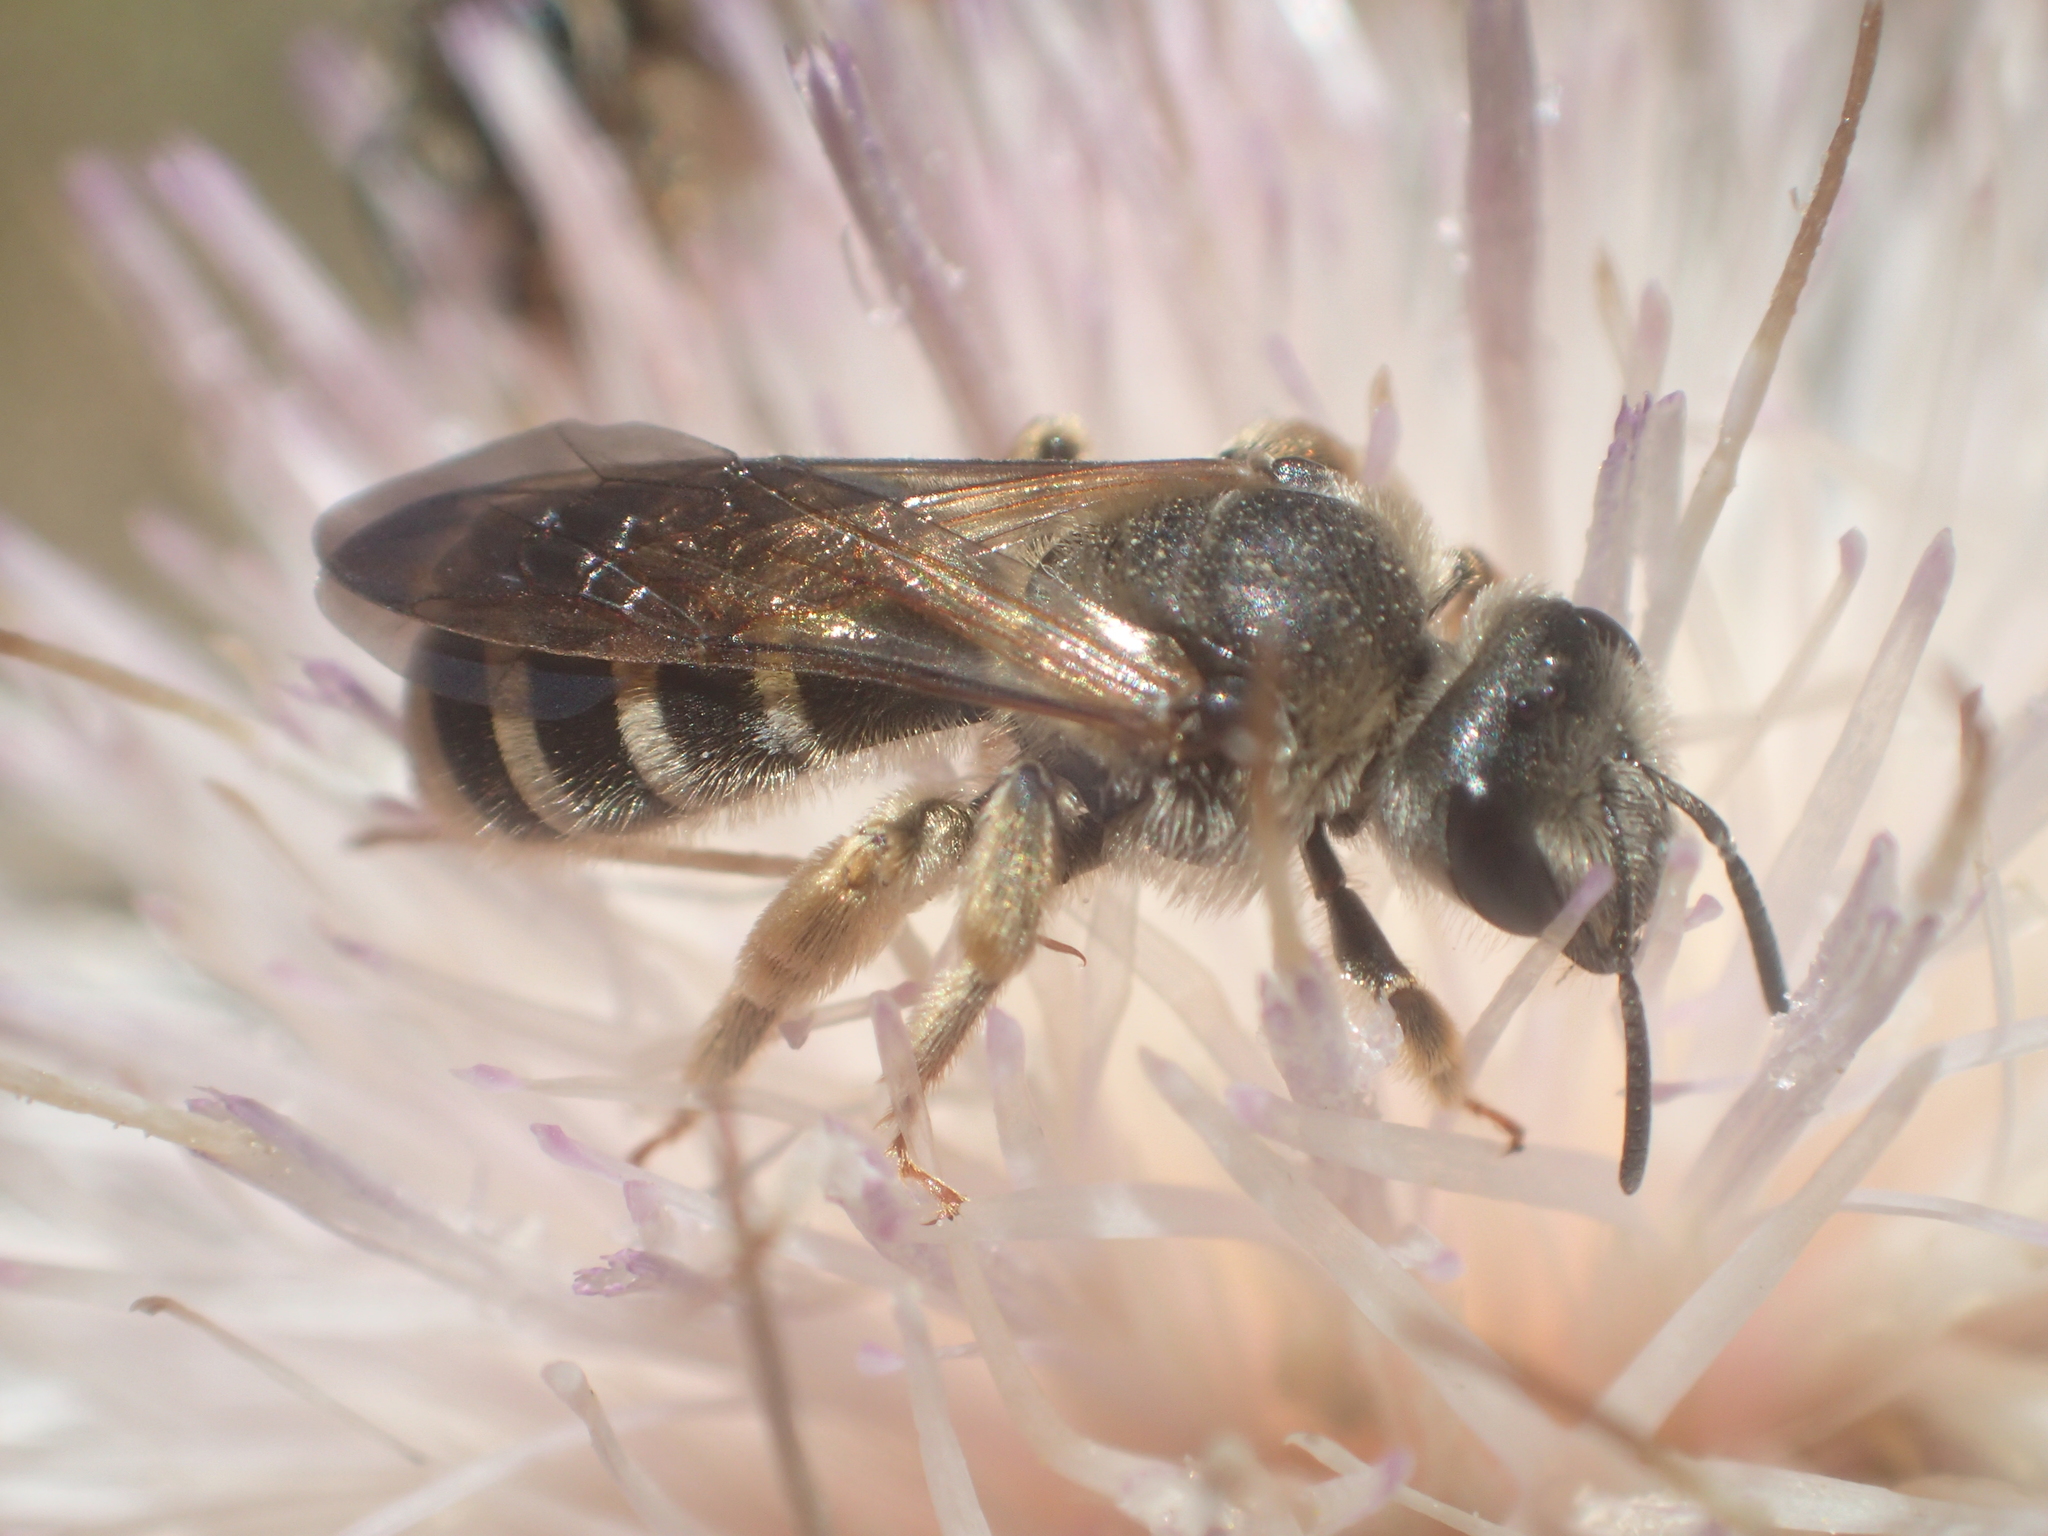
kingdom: Animalia
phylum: Arthropoda
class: Insecta
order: Hymenoptera
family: Halictidae
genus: Halictus
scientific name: Halictus farinosus
